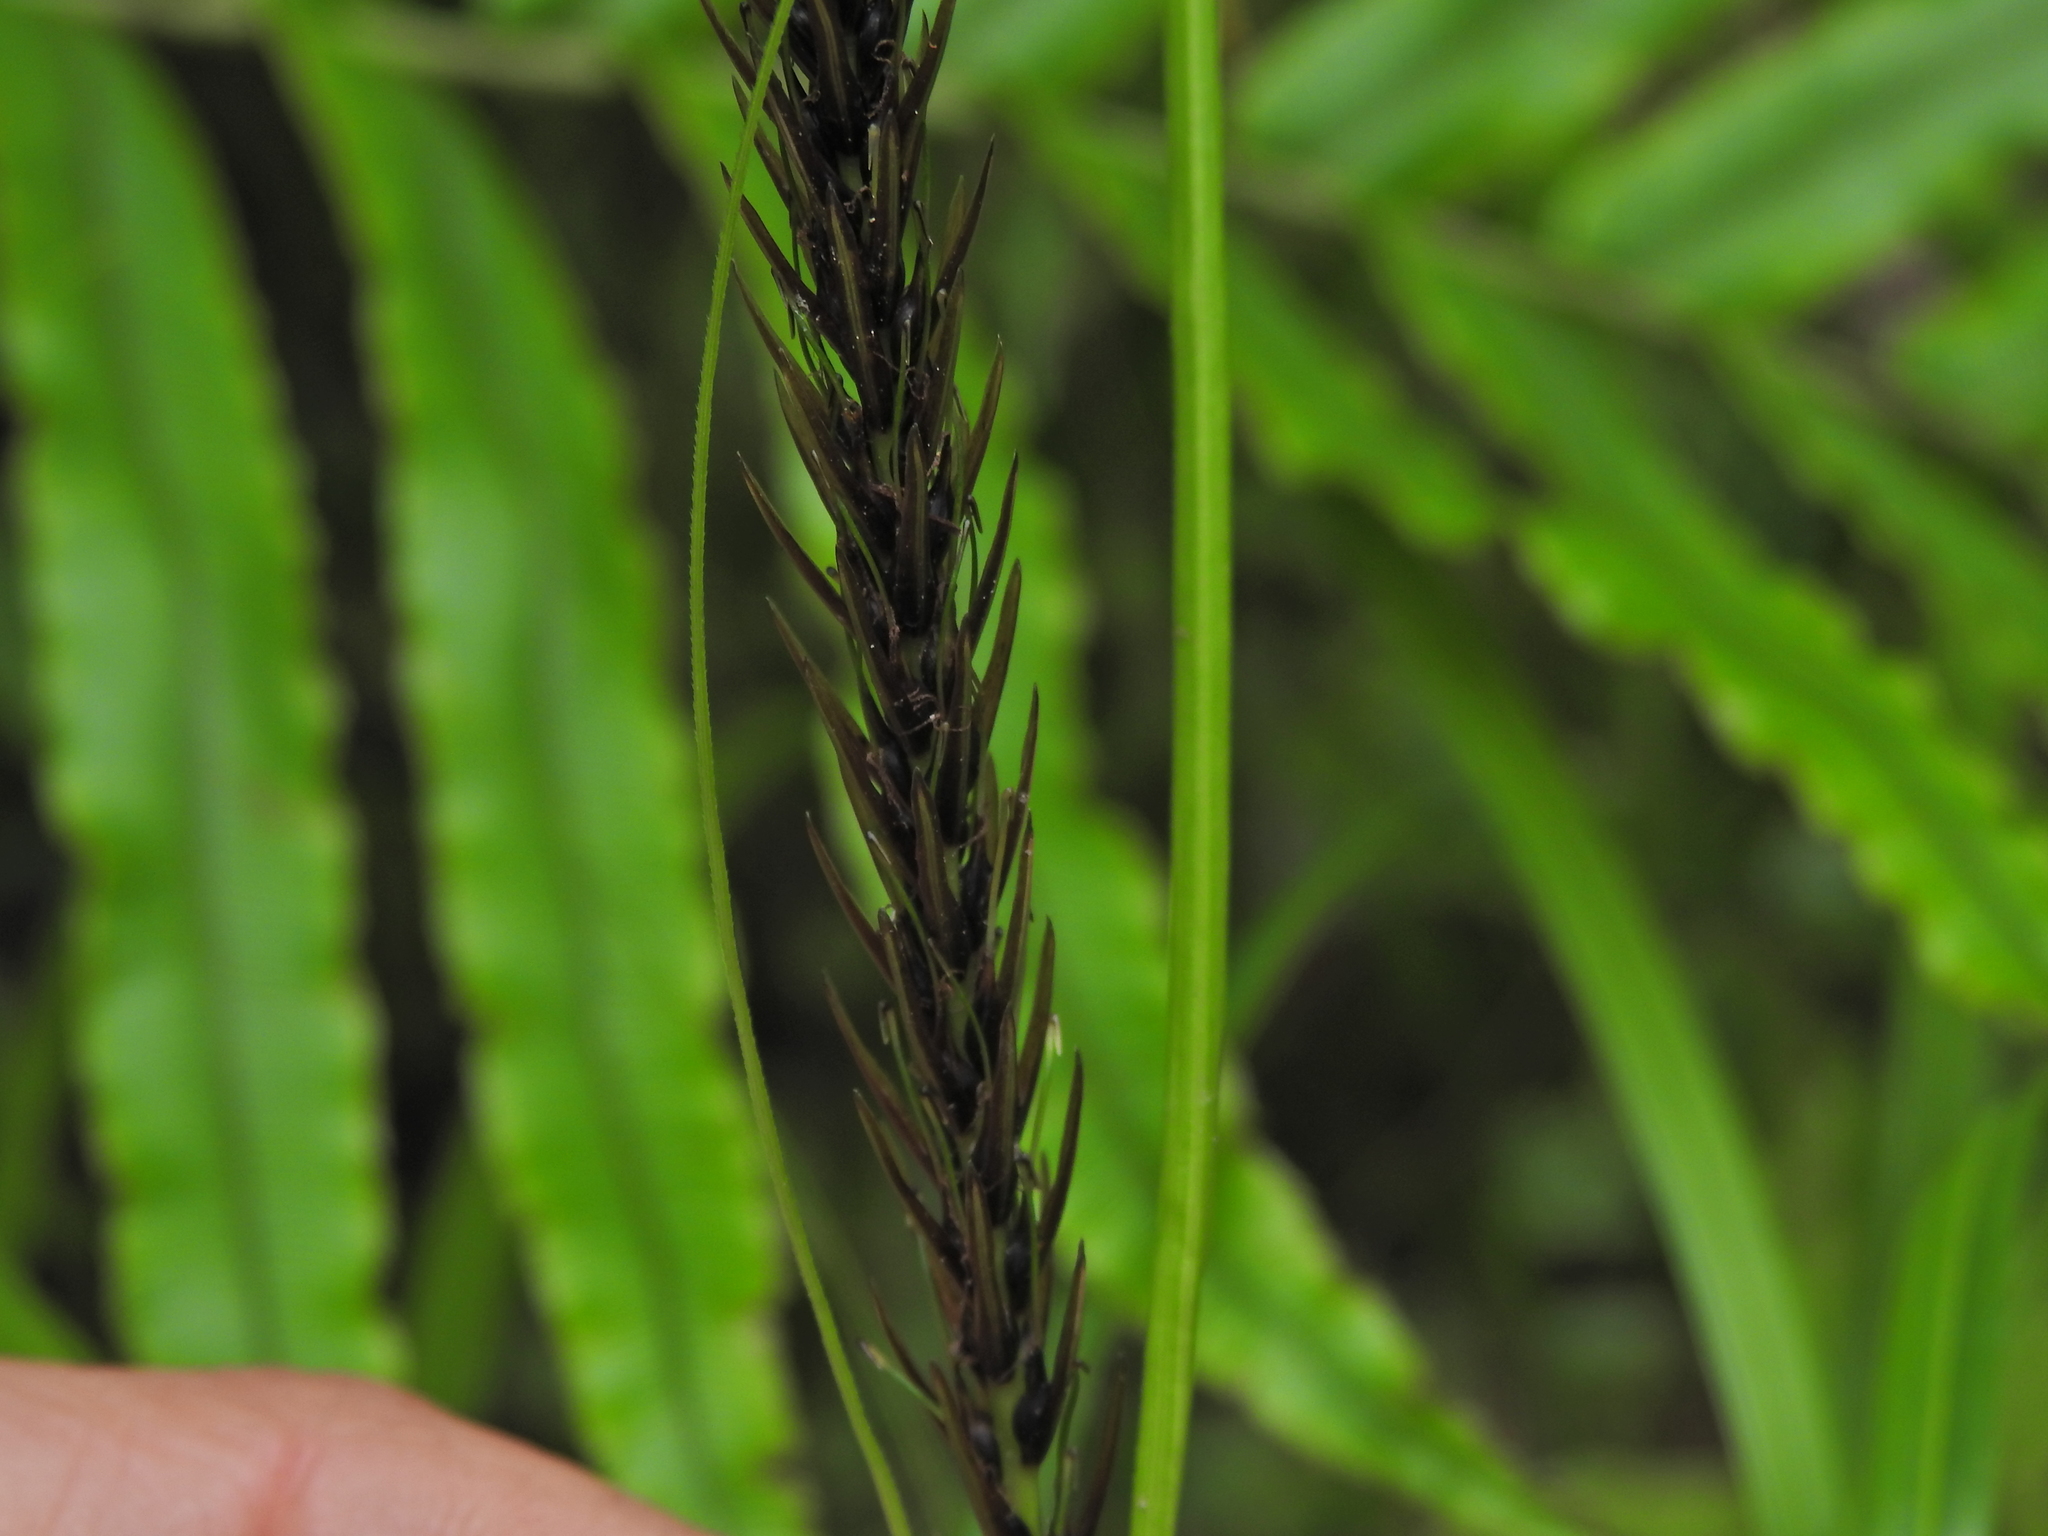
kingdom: Plantae
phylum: Tracheophyta
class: Liliopsida
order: Poales
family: Cyperaceae
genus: Carex
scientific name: Carex megalepis
